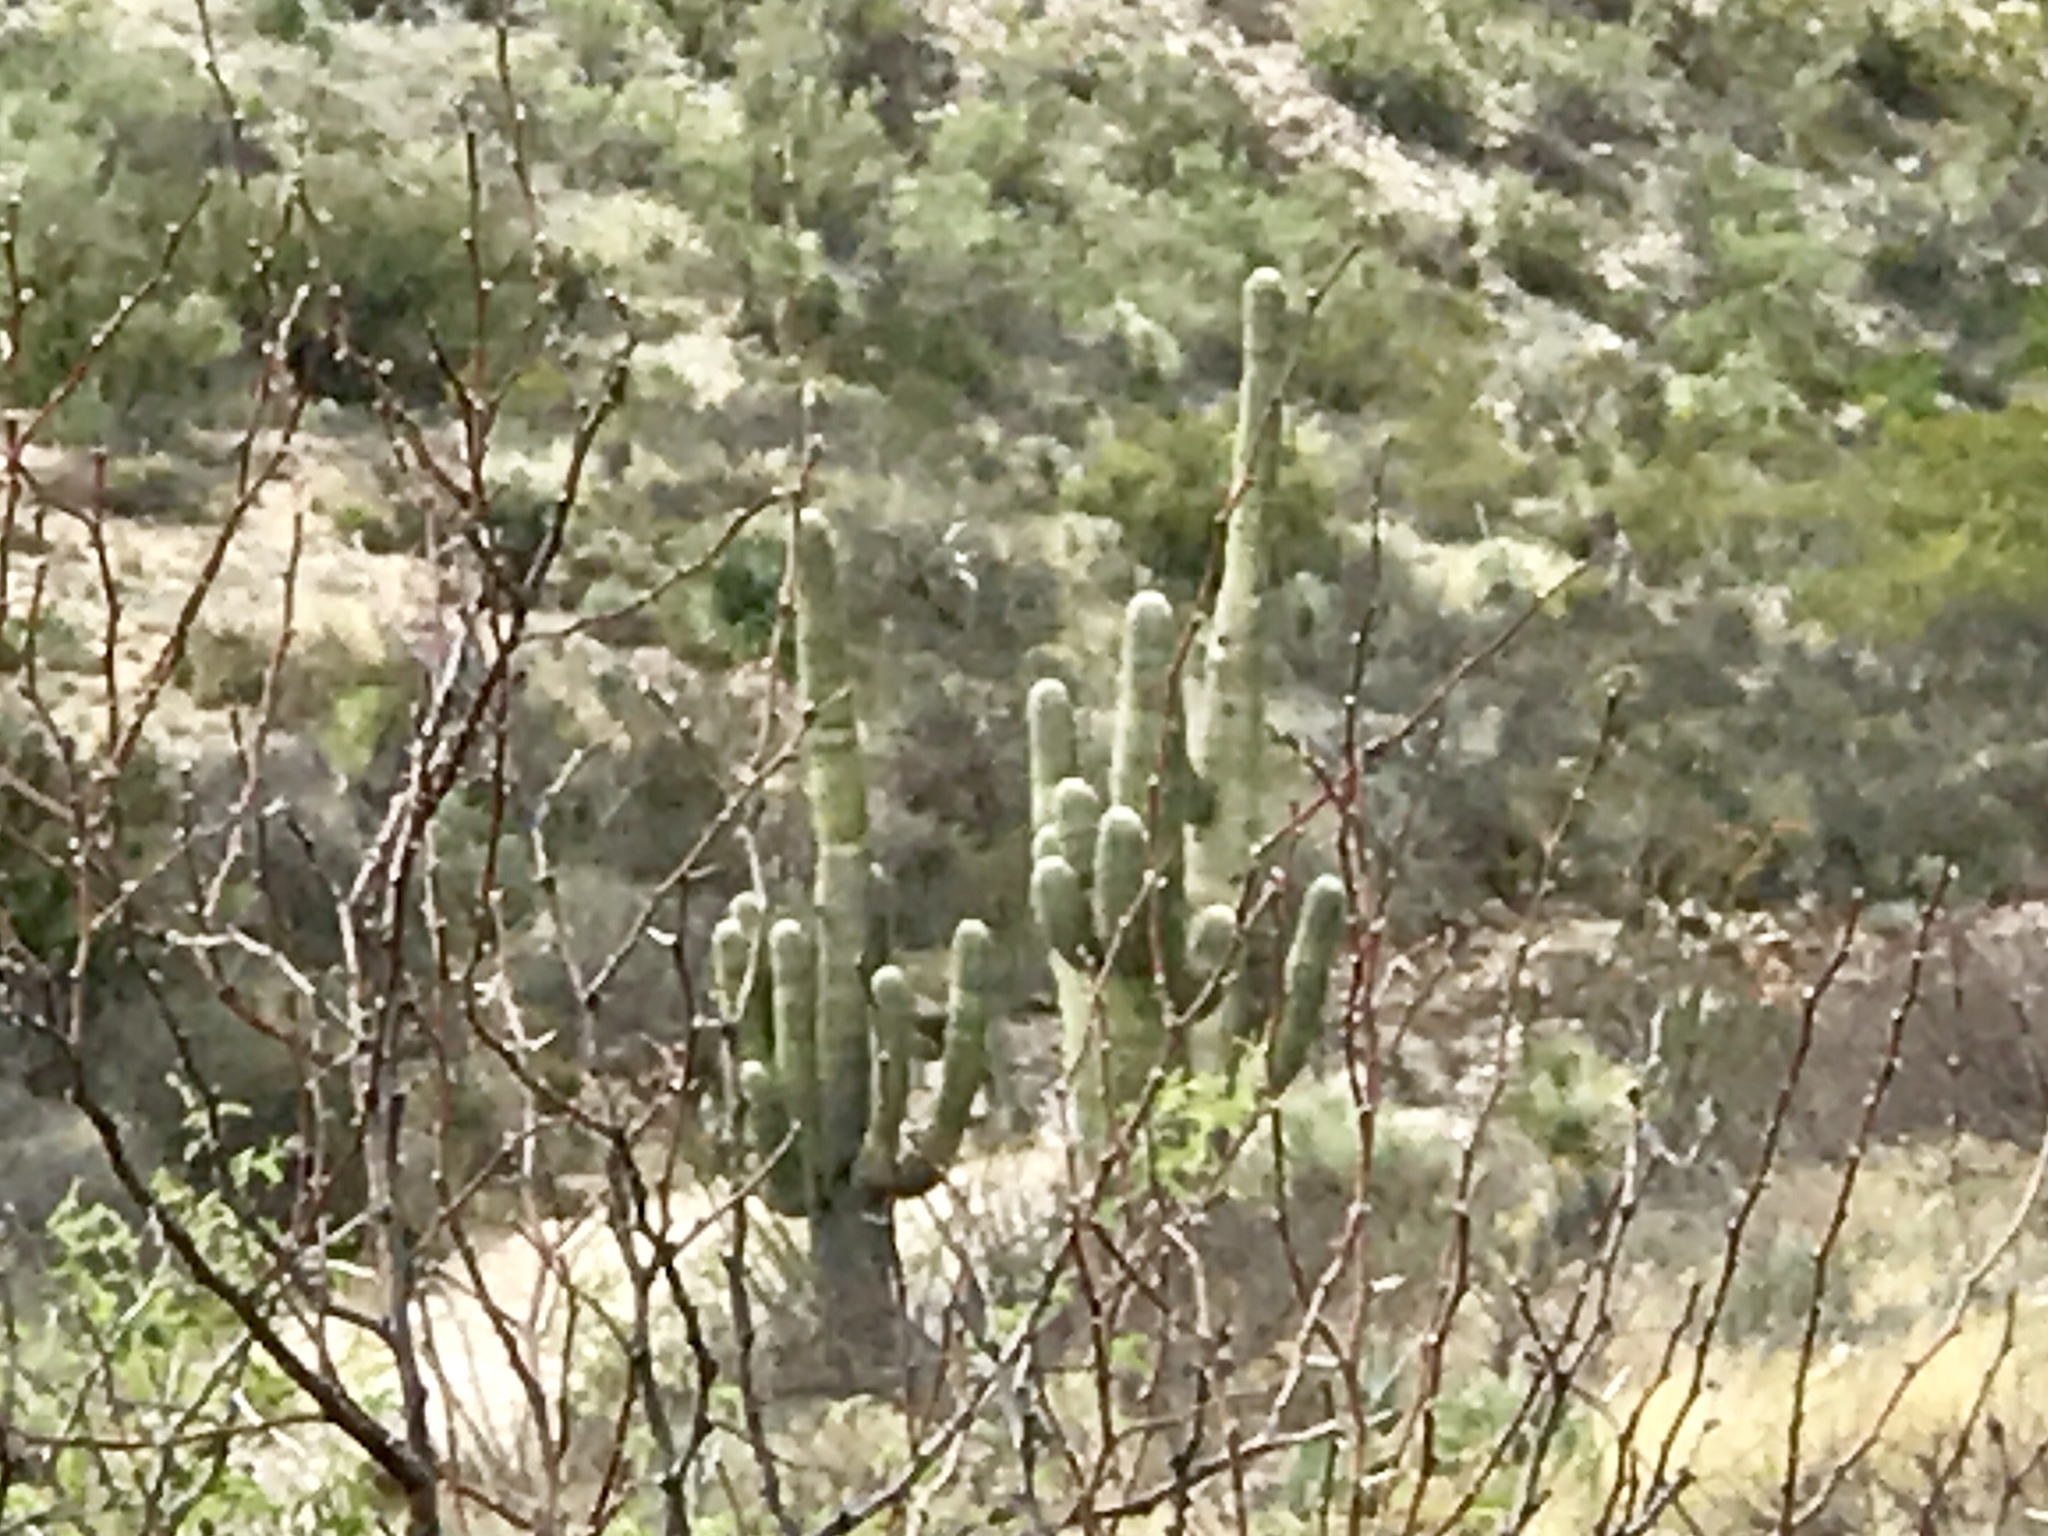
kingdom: Plantae
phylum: Tracheophyta
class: Magnoliopsida
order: Caryophyllales
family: Cactaceae
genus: Carnegiea
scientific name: Carnegiea gigantea
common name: Saguaro
